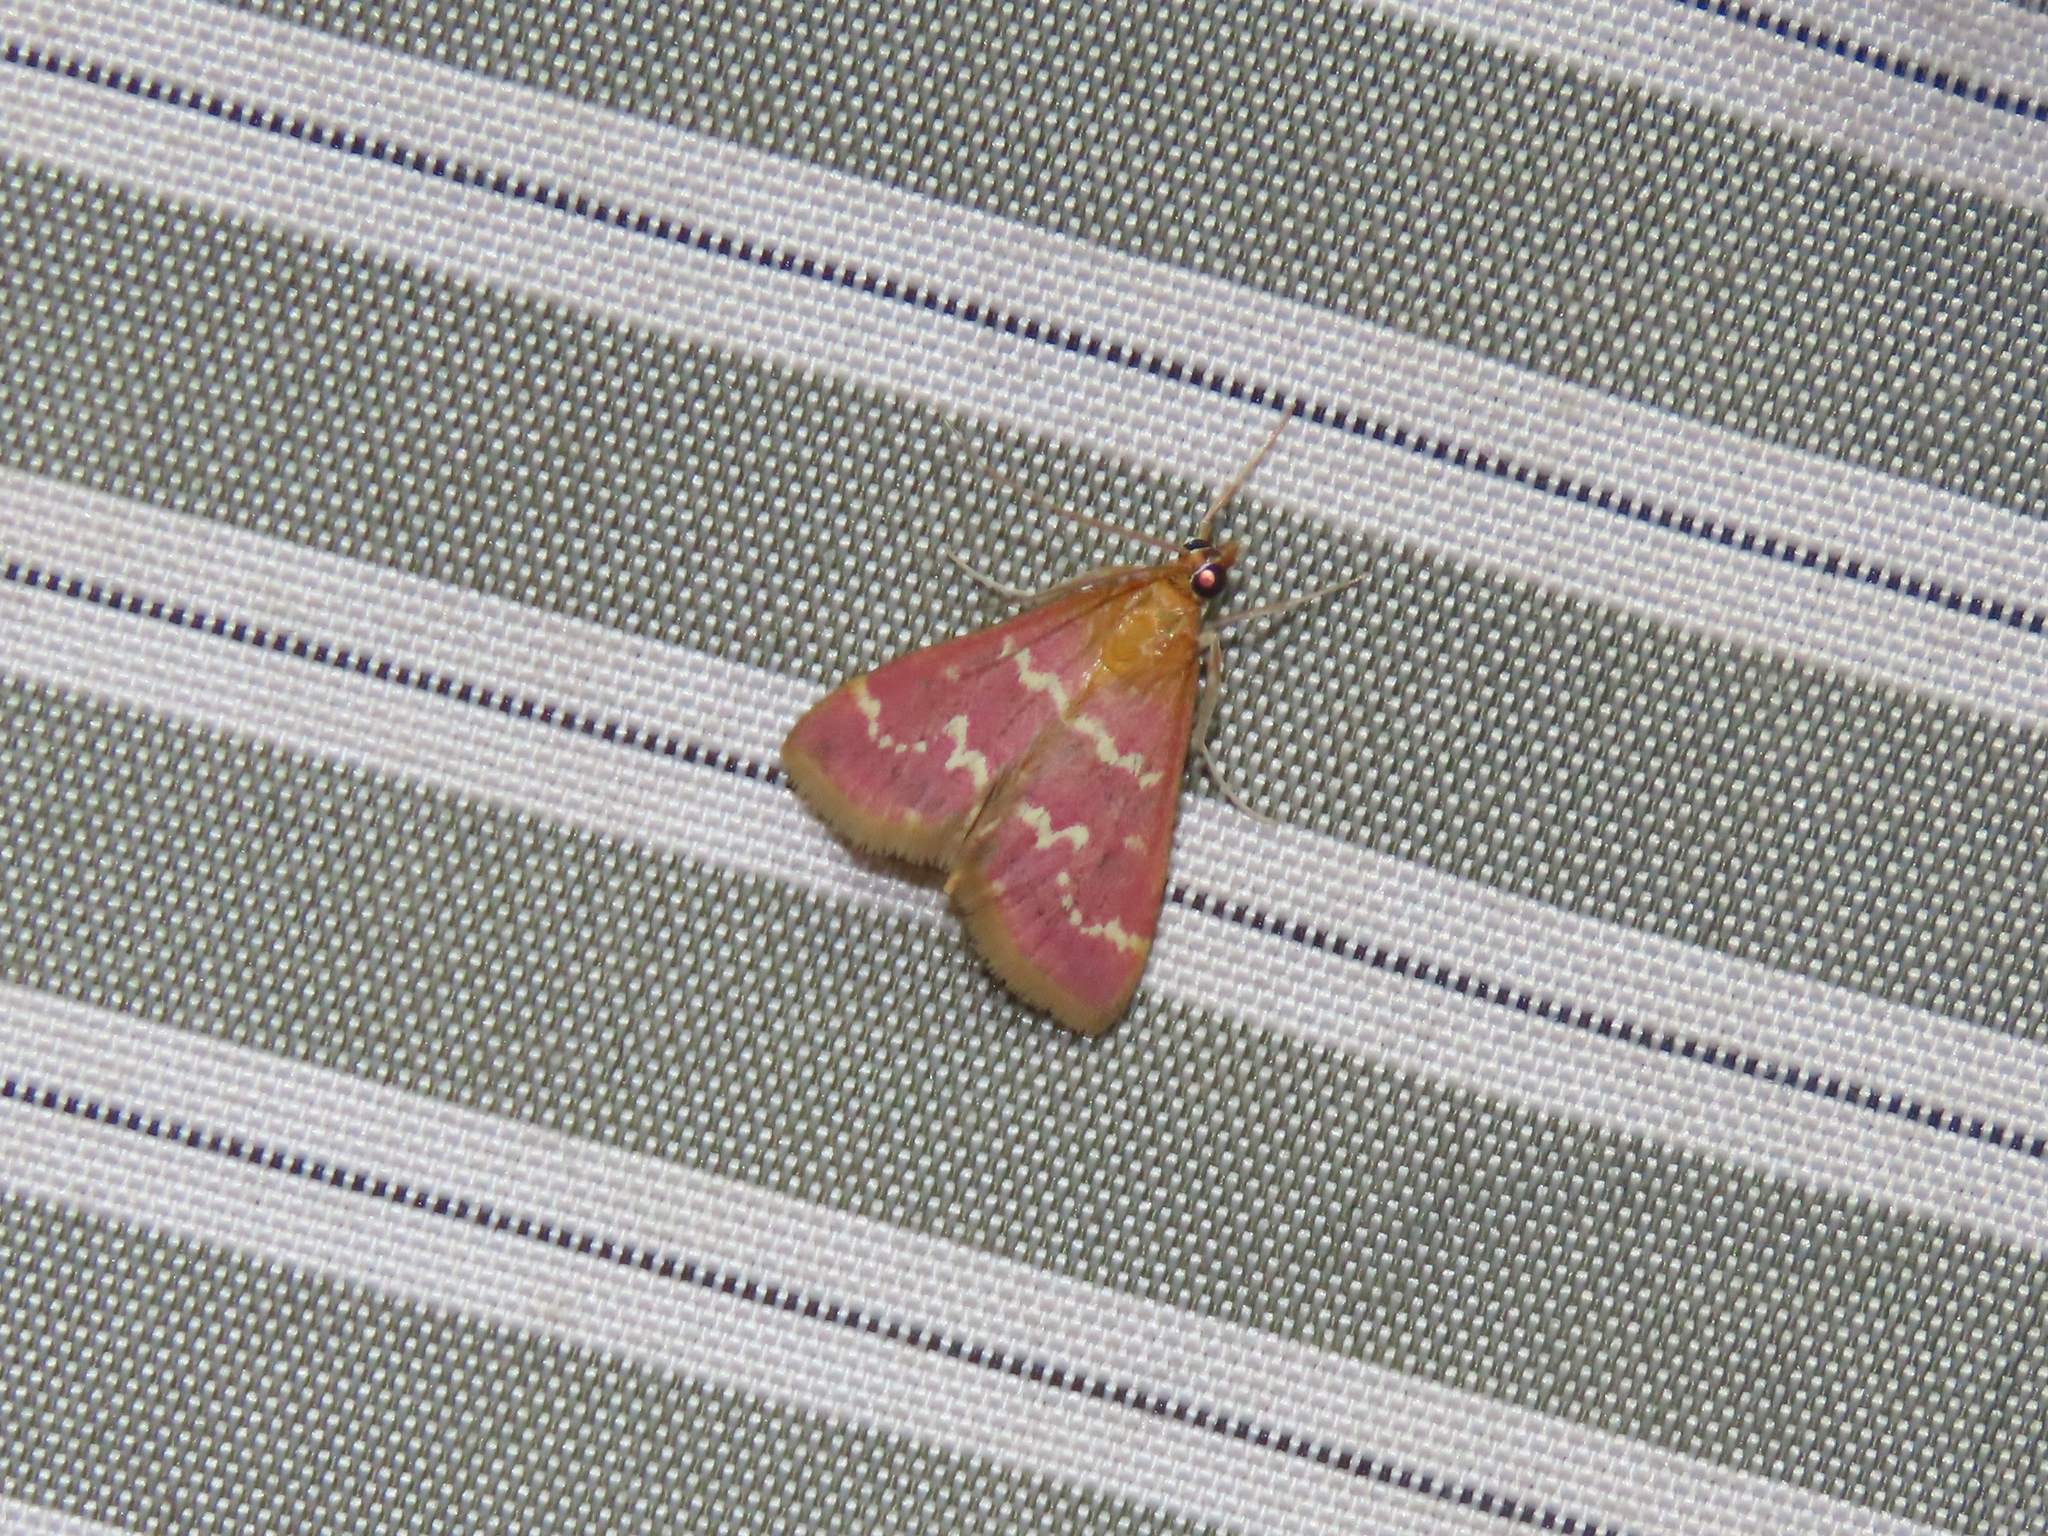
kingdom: Animalia
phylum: Arthropoda
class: Insecta
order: Lepidoptera
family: Crambidae
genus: Pyrausta
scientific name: Pyrausta signatalis
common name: Raspberry pyrausta moth
